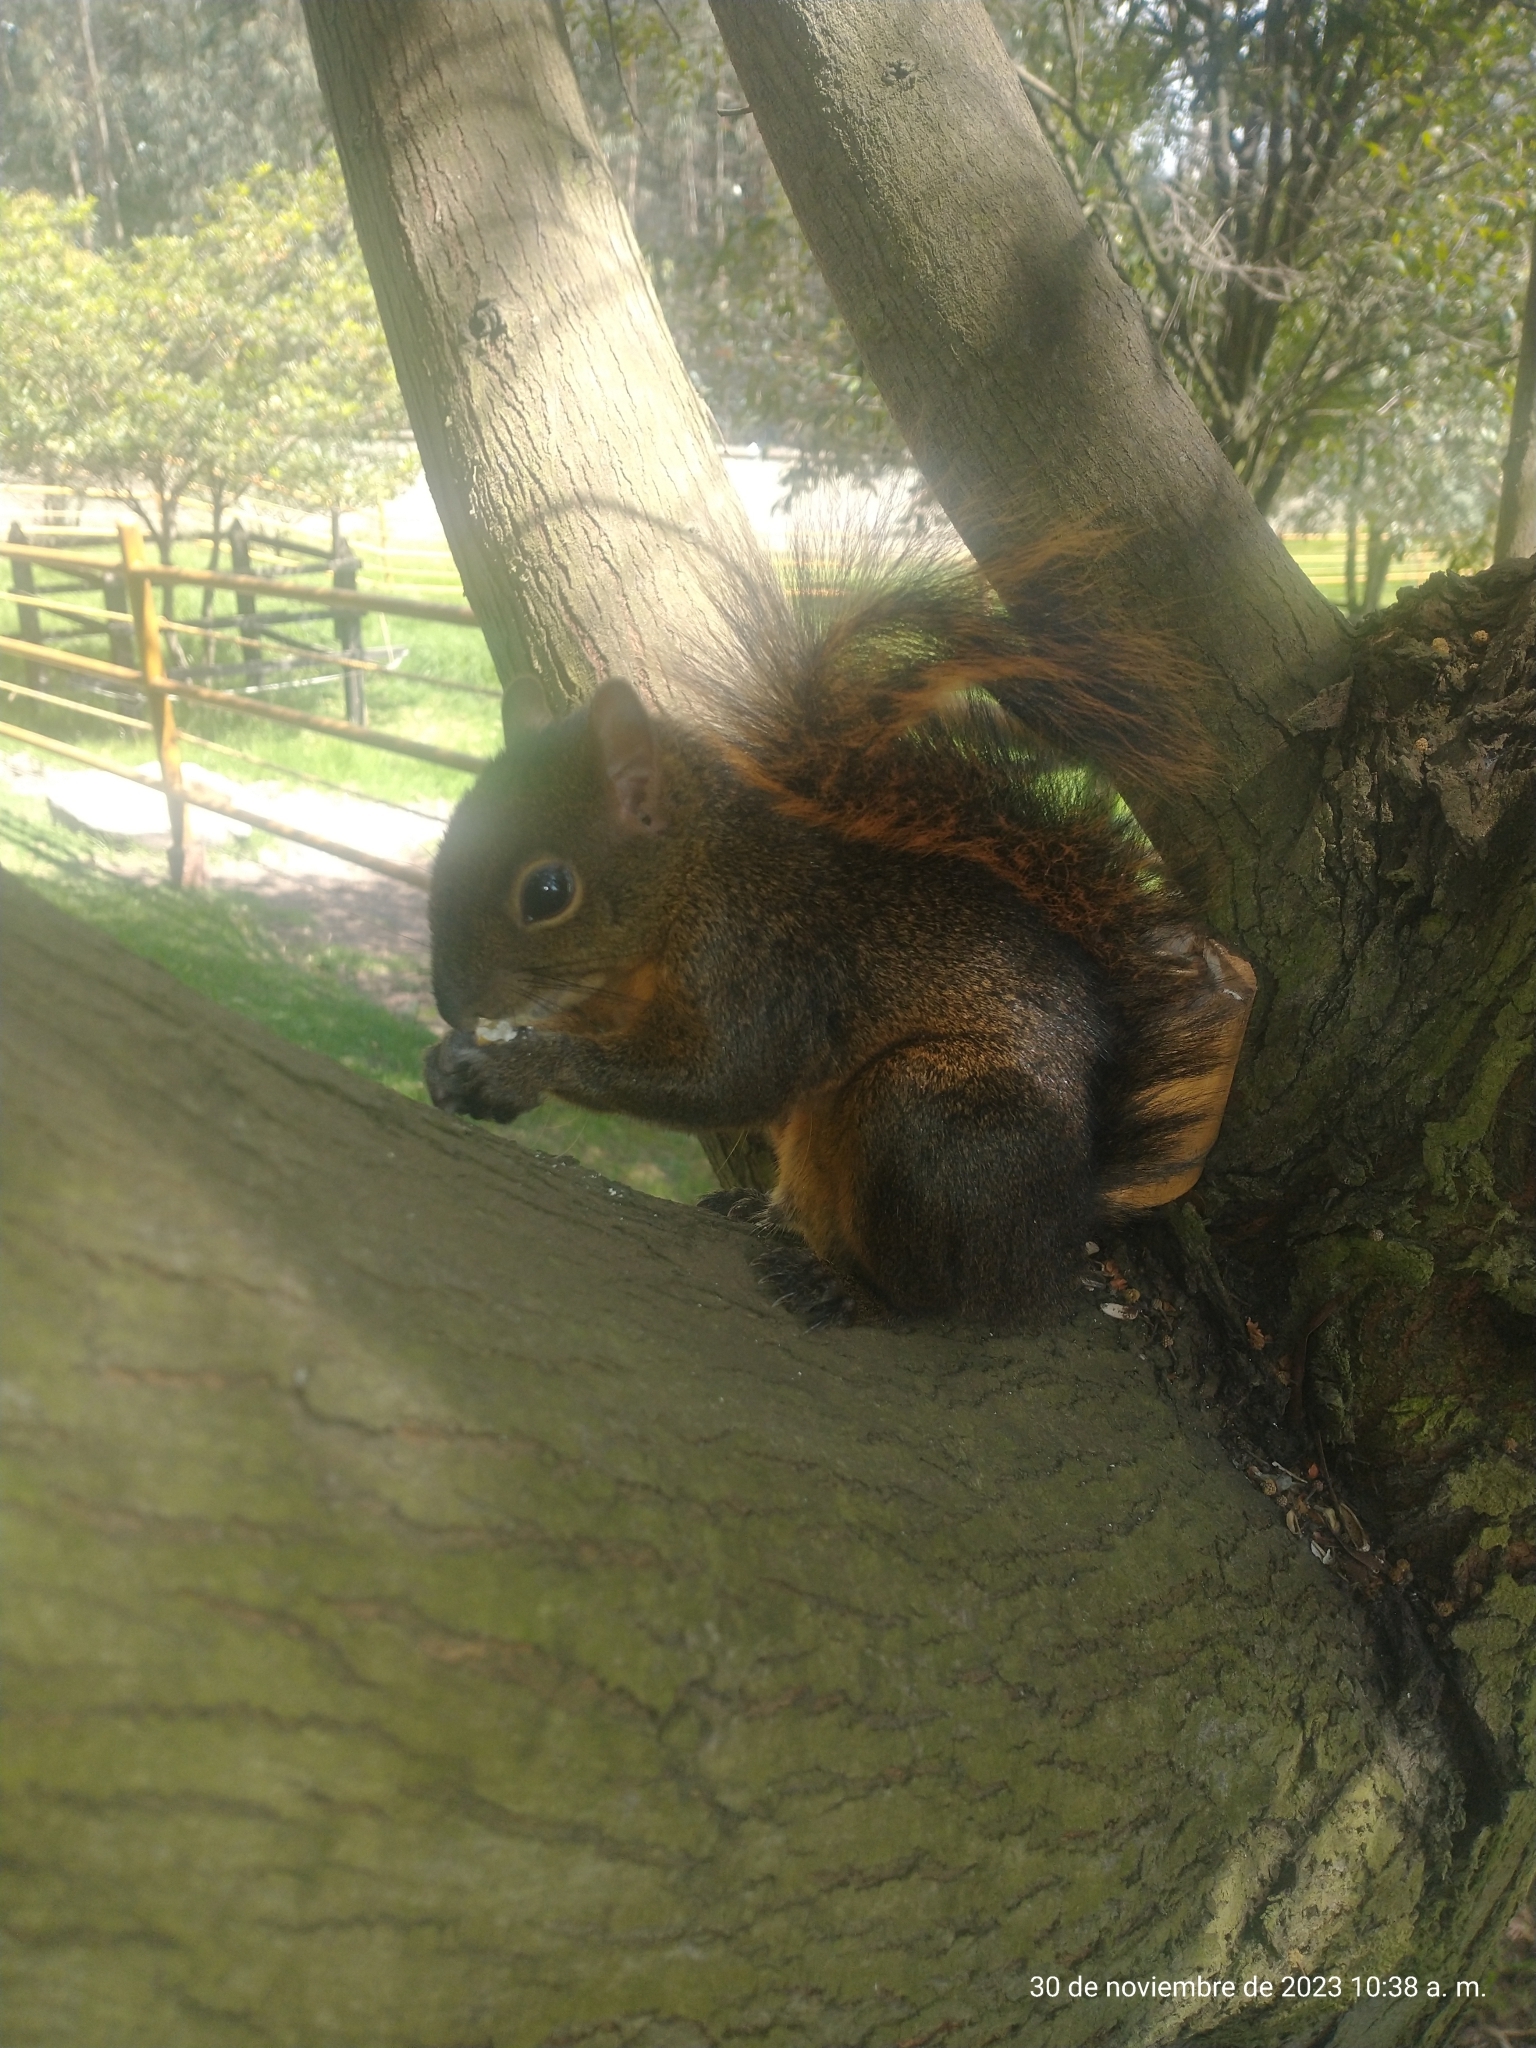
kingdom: Animalia
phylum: Chordata
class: Mammalia
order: Rodentia
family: Sciuridae
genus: Sciurus
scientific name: Sciurus granatensis
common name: Red-tailed squirrel
